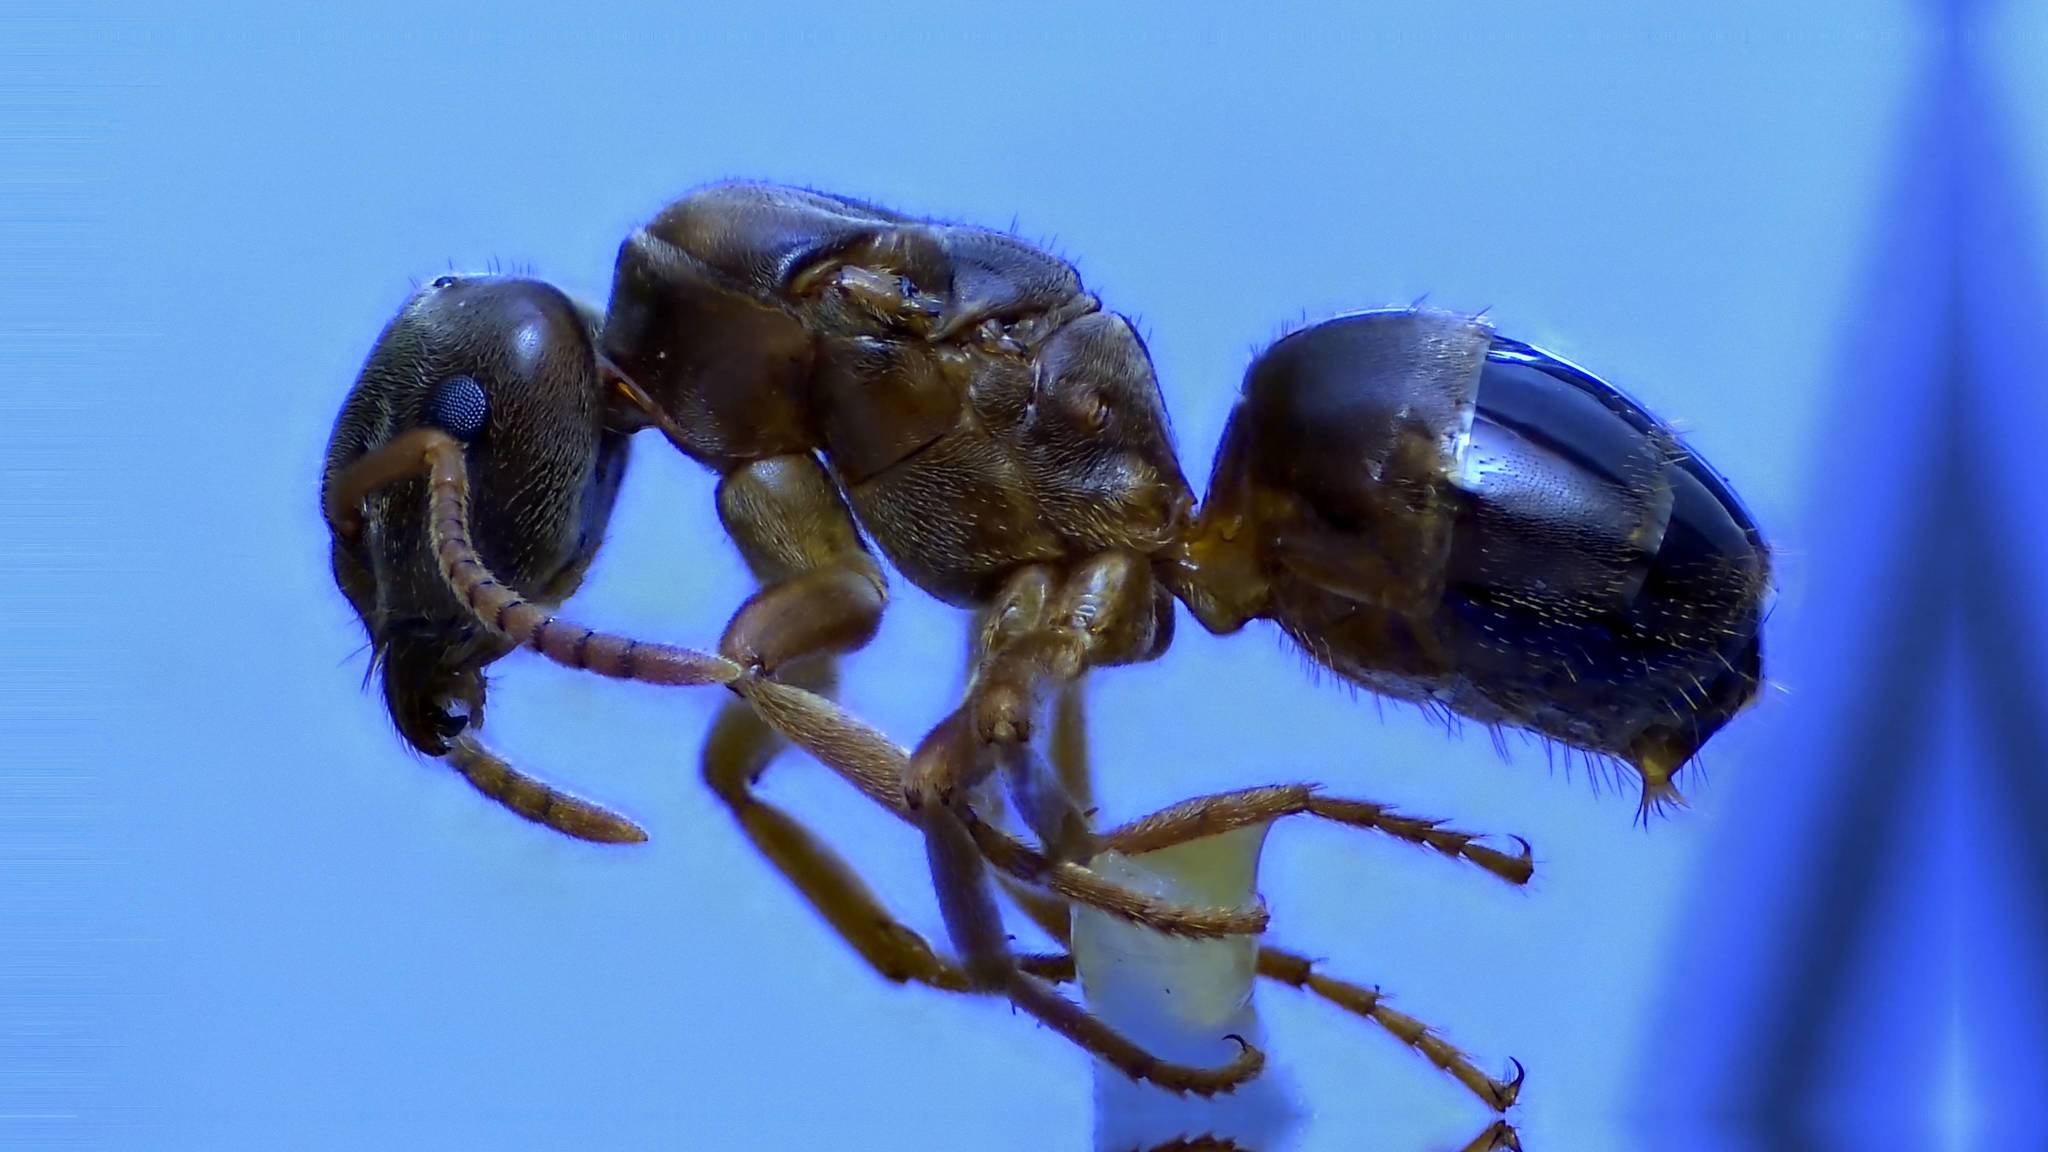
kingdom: Animalia
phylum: Arthropoda
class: Insecta
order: Hymenoptera
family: Formicidae
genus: Lasius
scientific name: Lasius speculiventris
